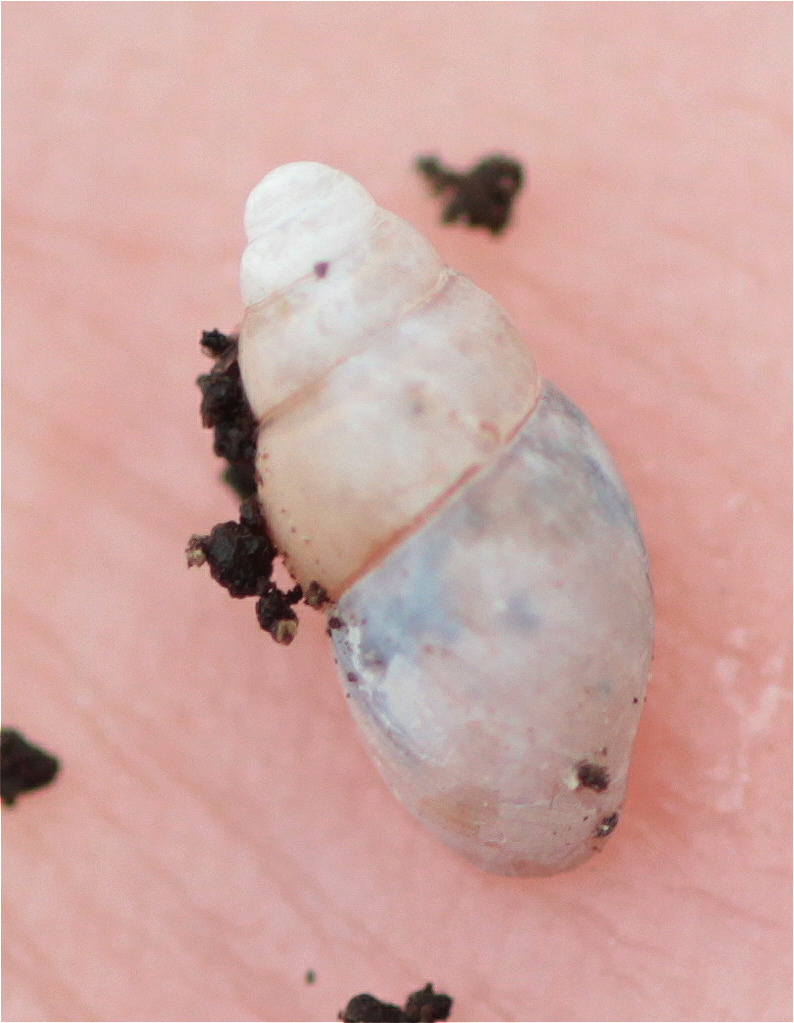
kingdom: Animalia
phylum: Mollusca
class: Gastropoda
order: Stylommatophora
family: Cochlicopidae
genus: Cochlicopa
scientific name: Cochlicopa lubrica
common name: Glossy pillar snail
